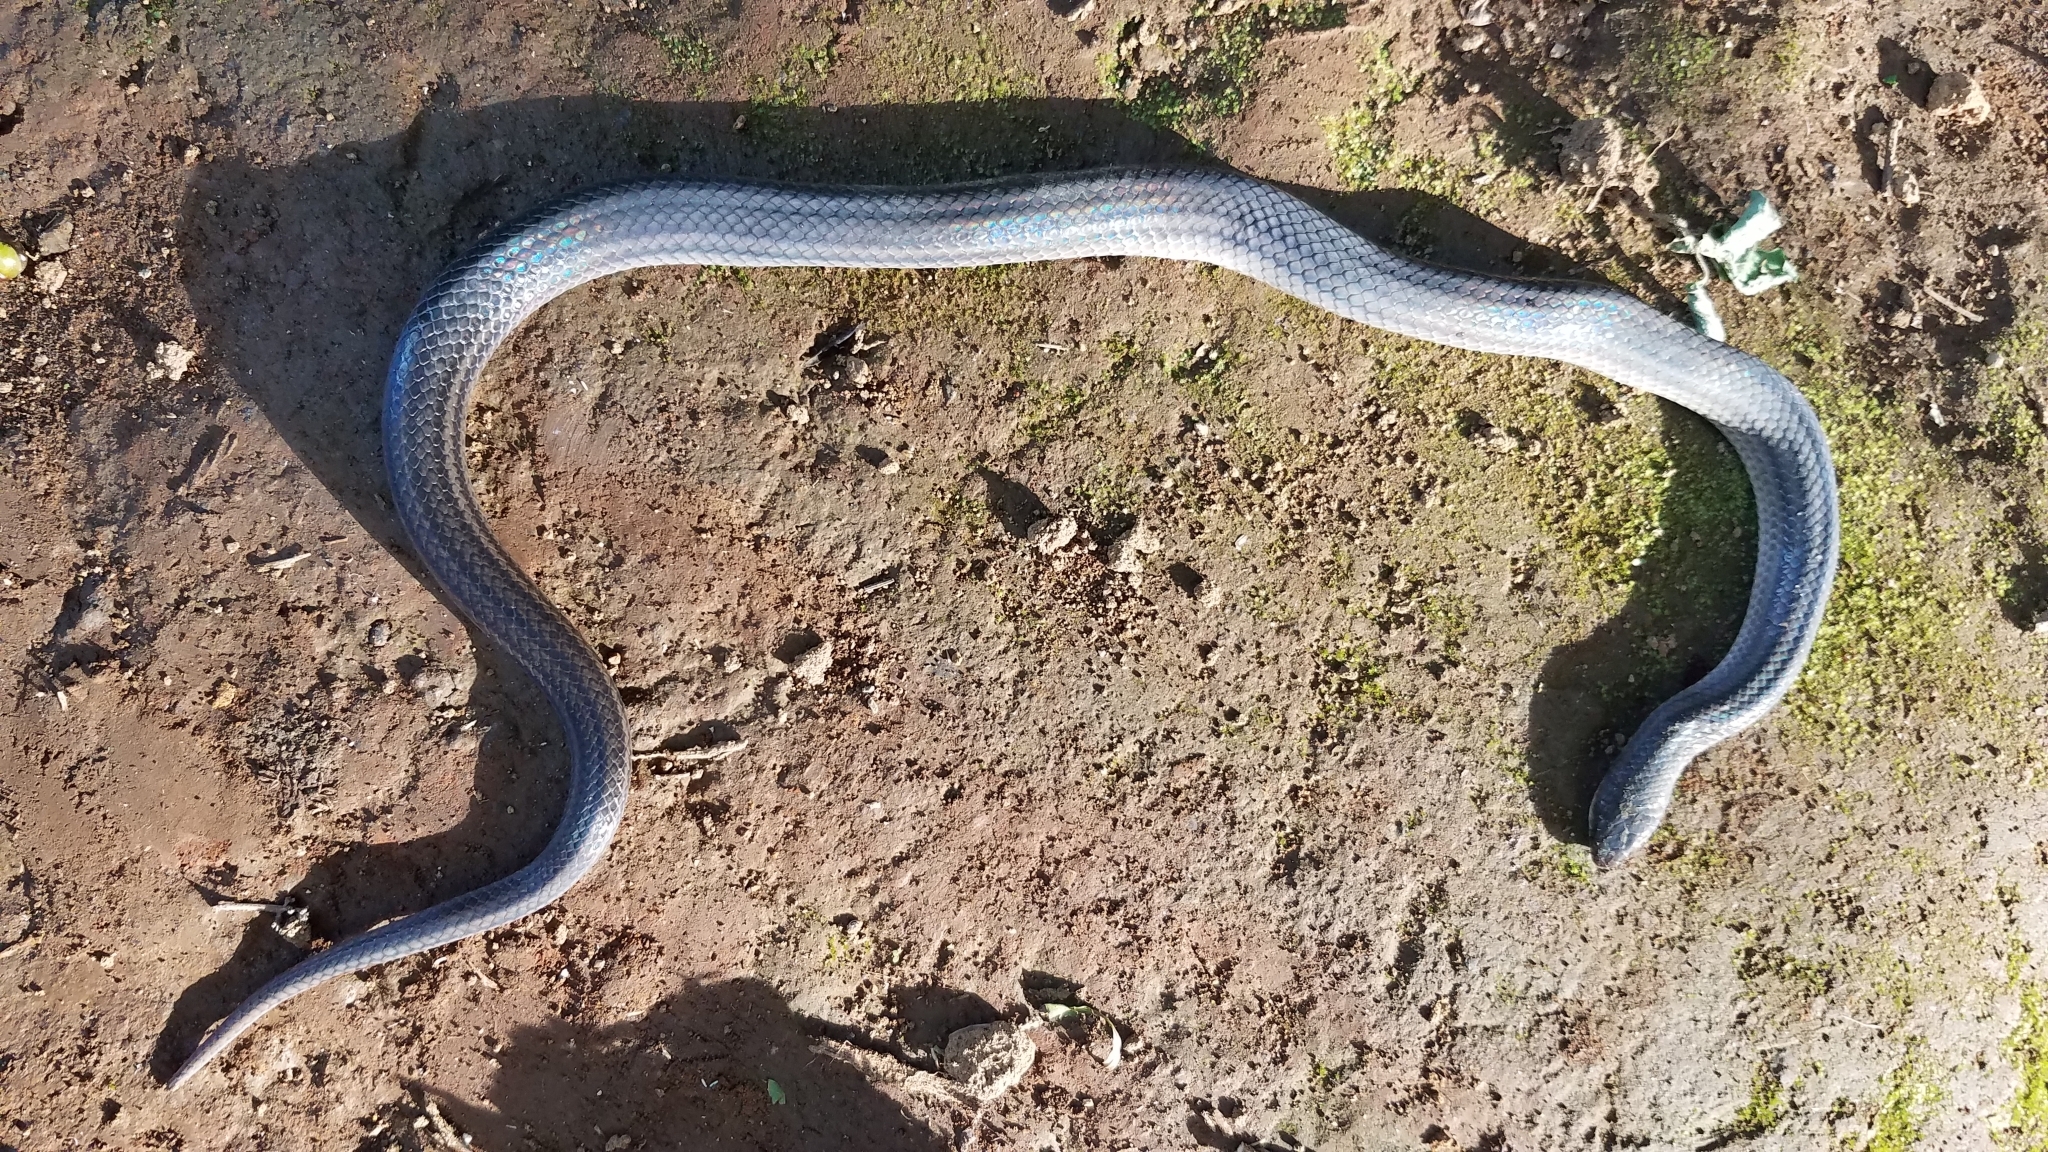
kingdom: Animalia
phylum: Chordata
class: Squamata
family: Colubridae
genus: Stenorrhina
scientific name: Stenorrhina freminvillei
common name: Blood snake
